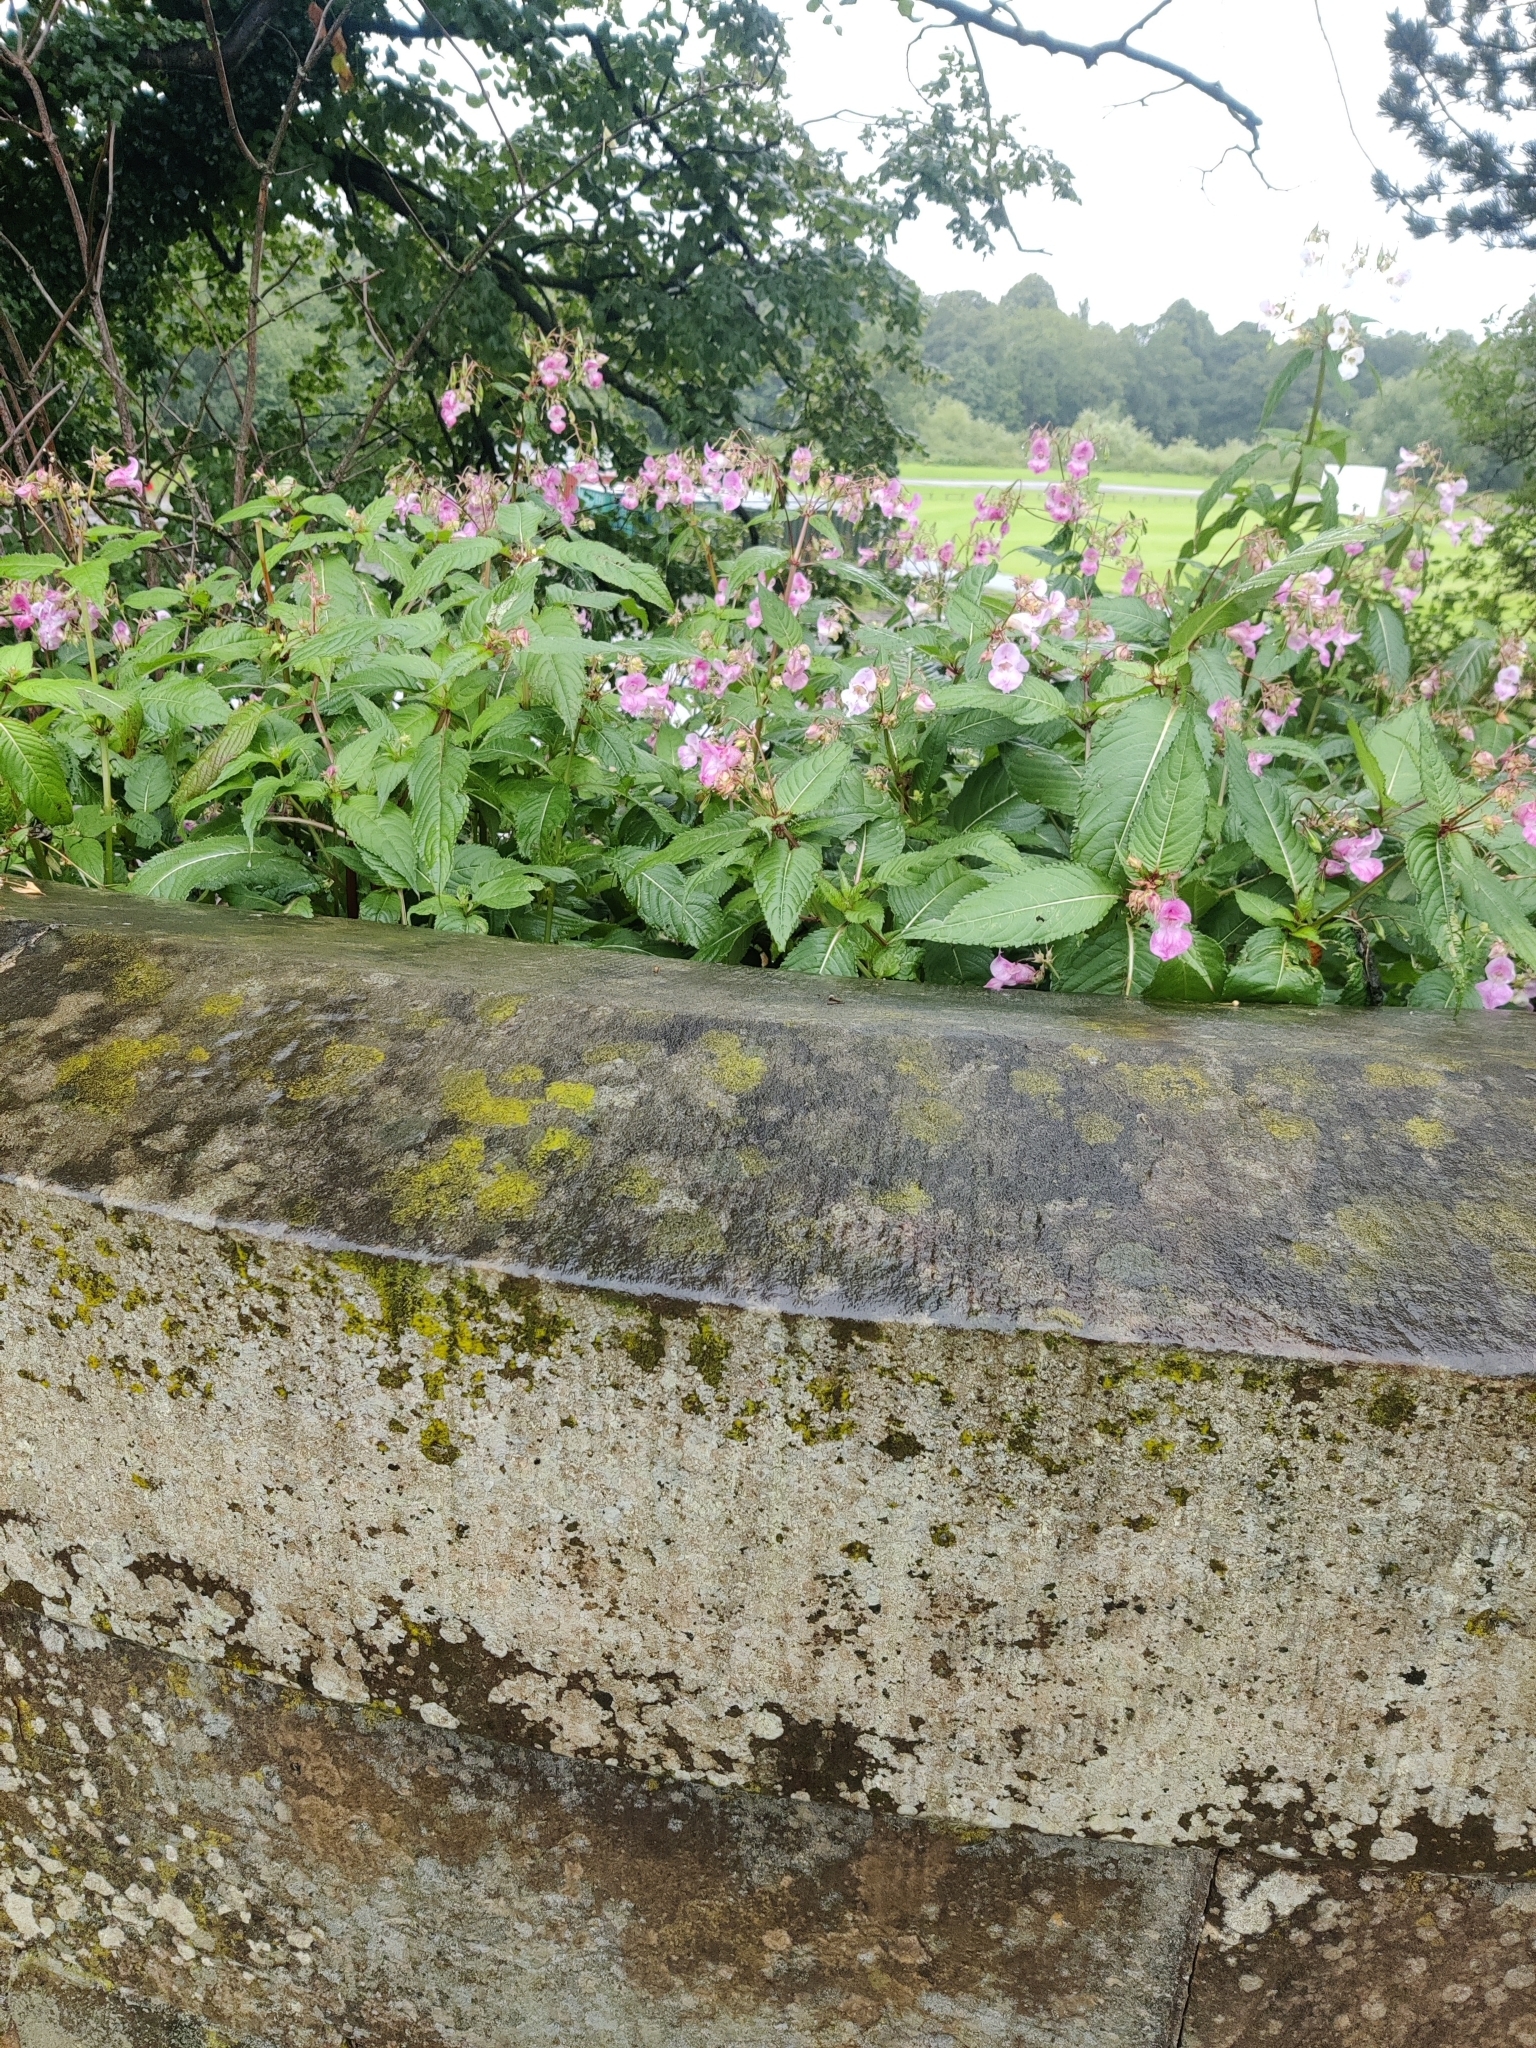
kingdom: Plantae
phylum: Tracheophyta
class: Magnoliopsida
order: Ericales
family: Balsaminaceae
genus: Impatiens
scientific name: Impatiens glandulifera
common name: Himalayan balsam
